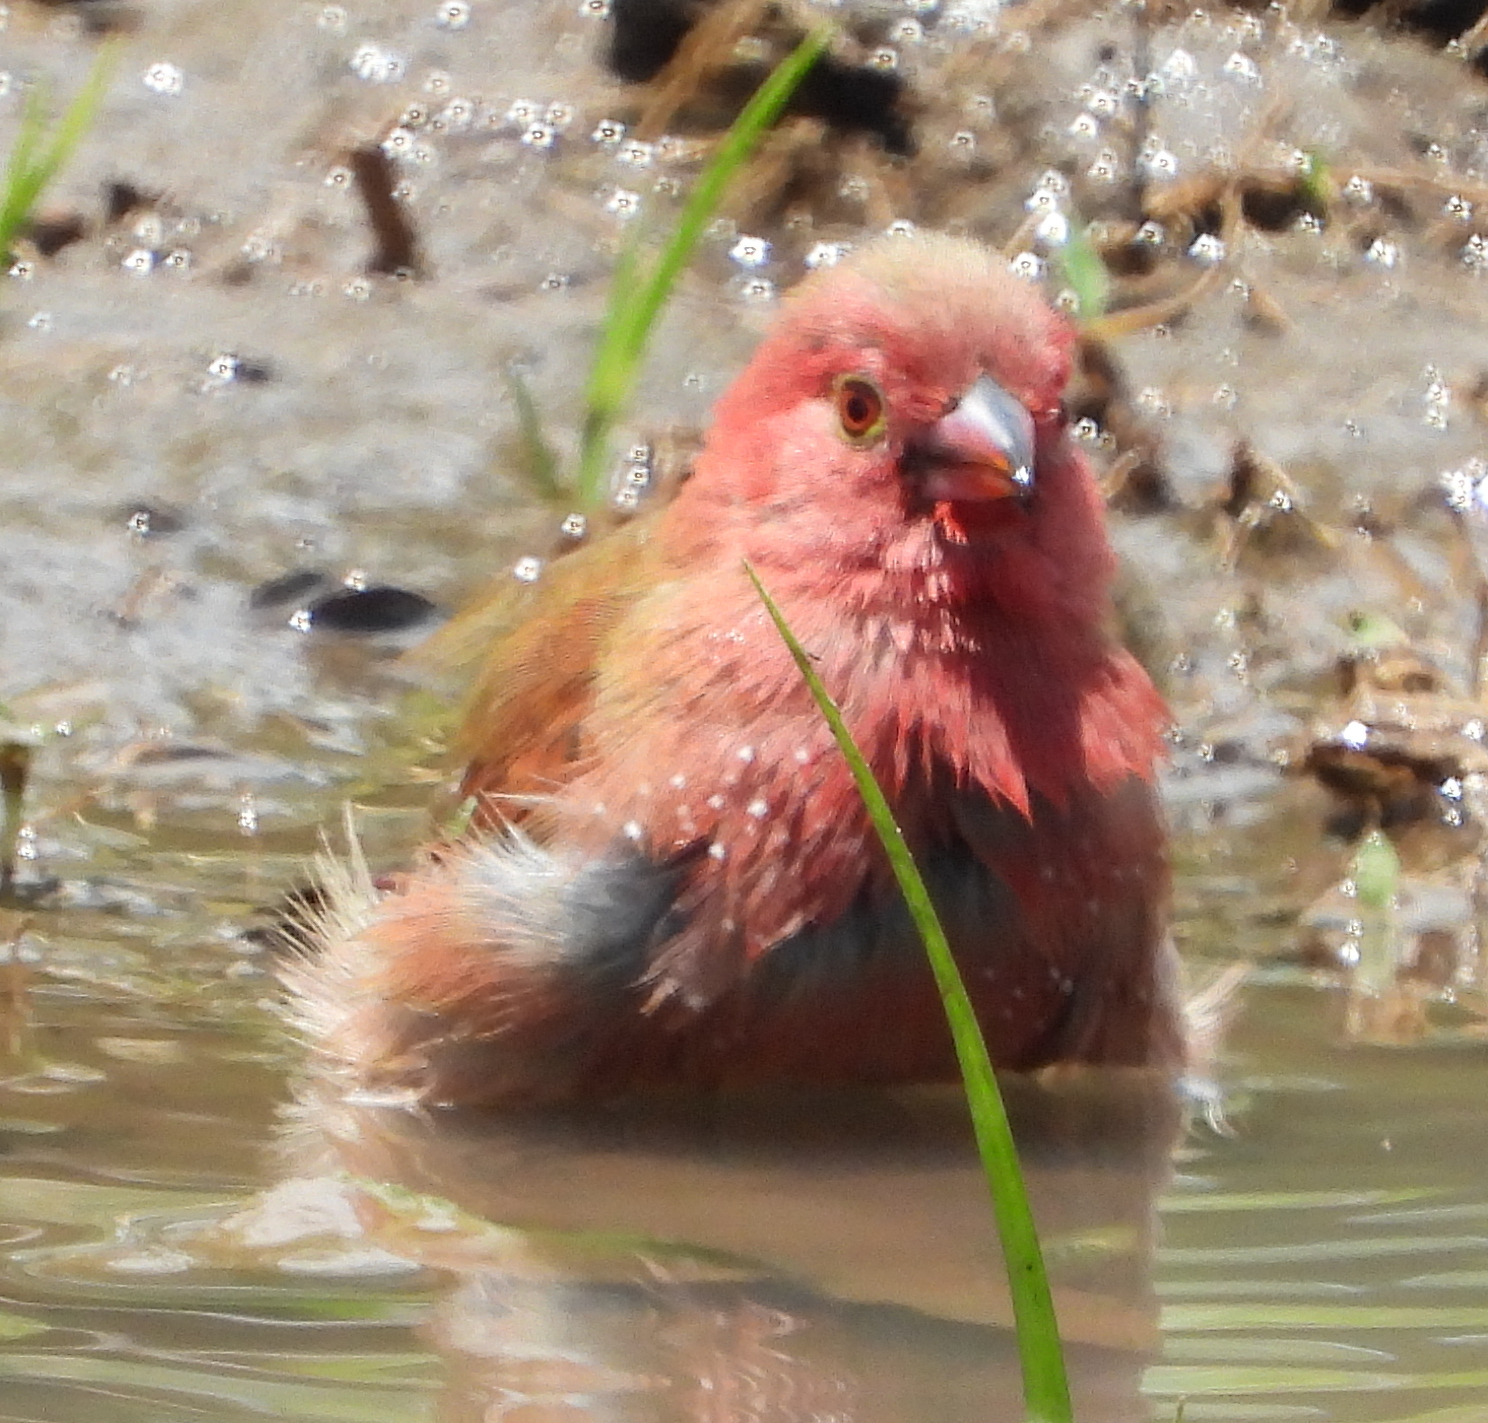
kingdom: Animalia
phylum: Chordata
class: Aves
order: Passeriformes
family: Estrildidae
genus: Lagonosticta
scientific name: Lagonosticta senegala
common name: Red-billed firefinch
